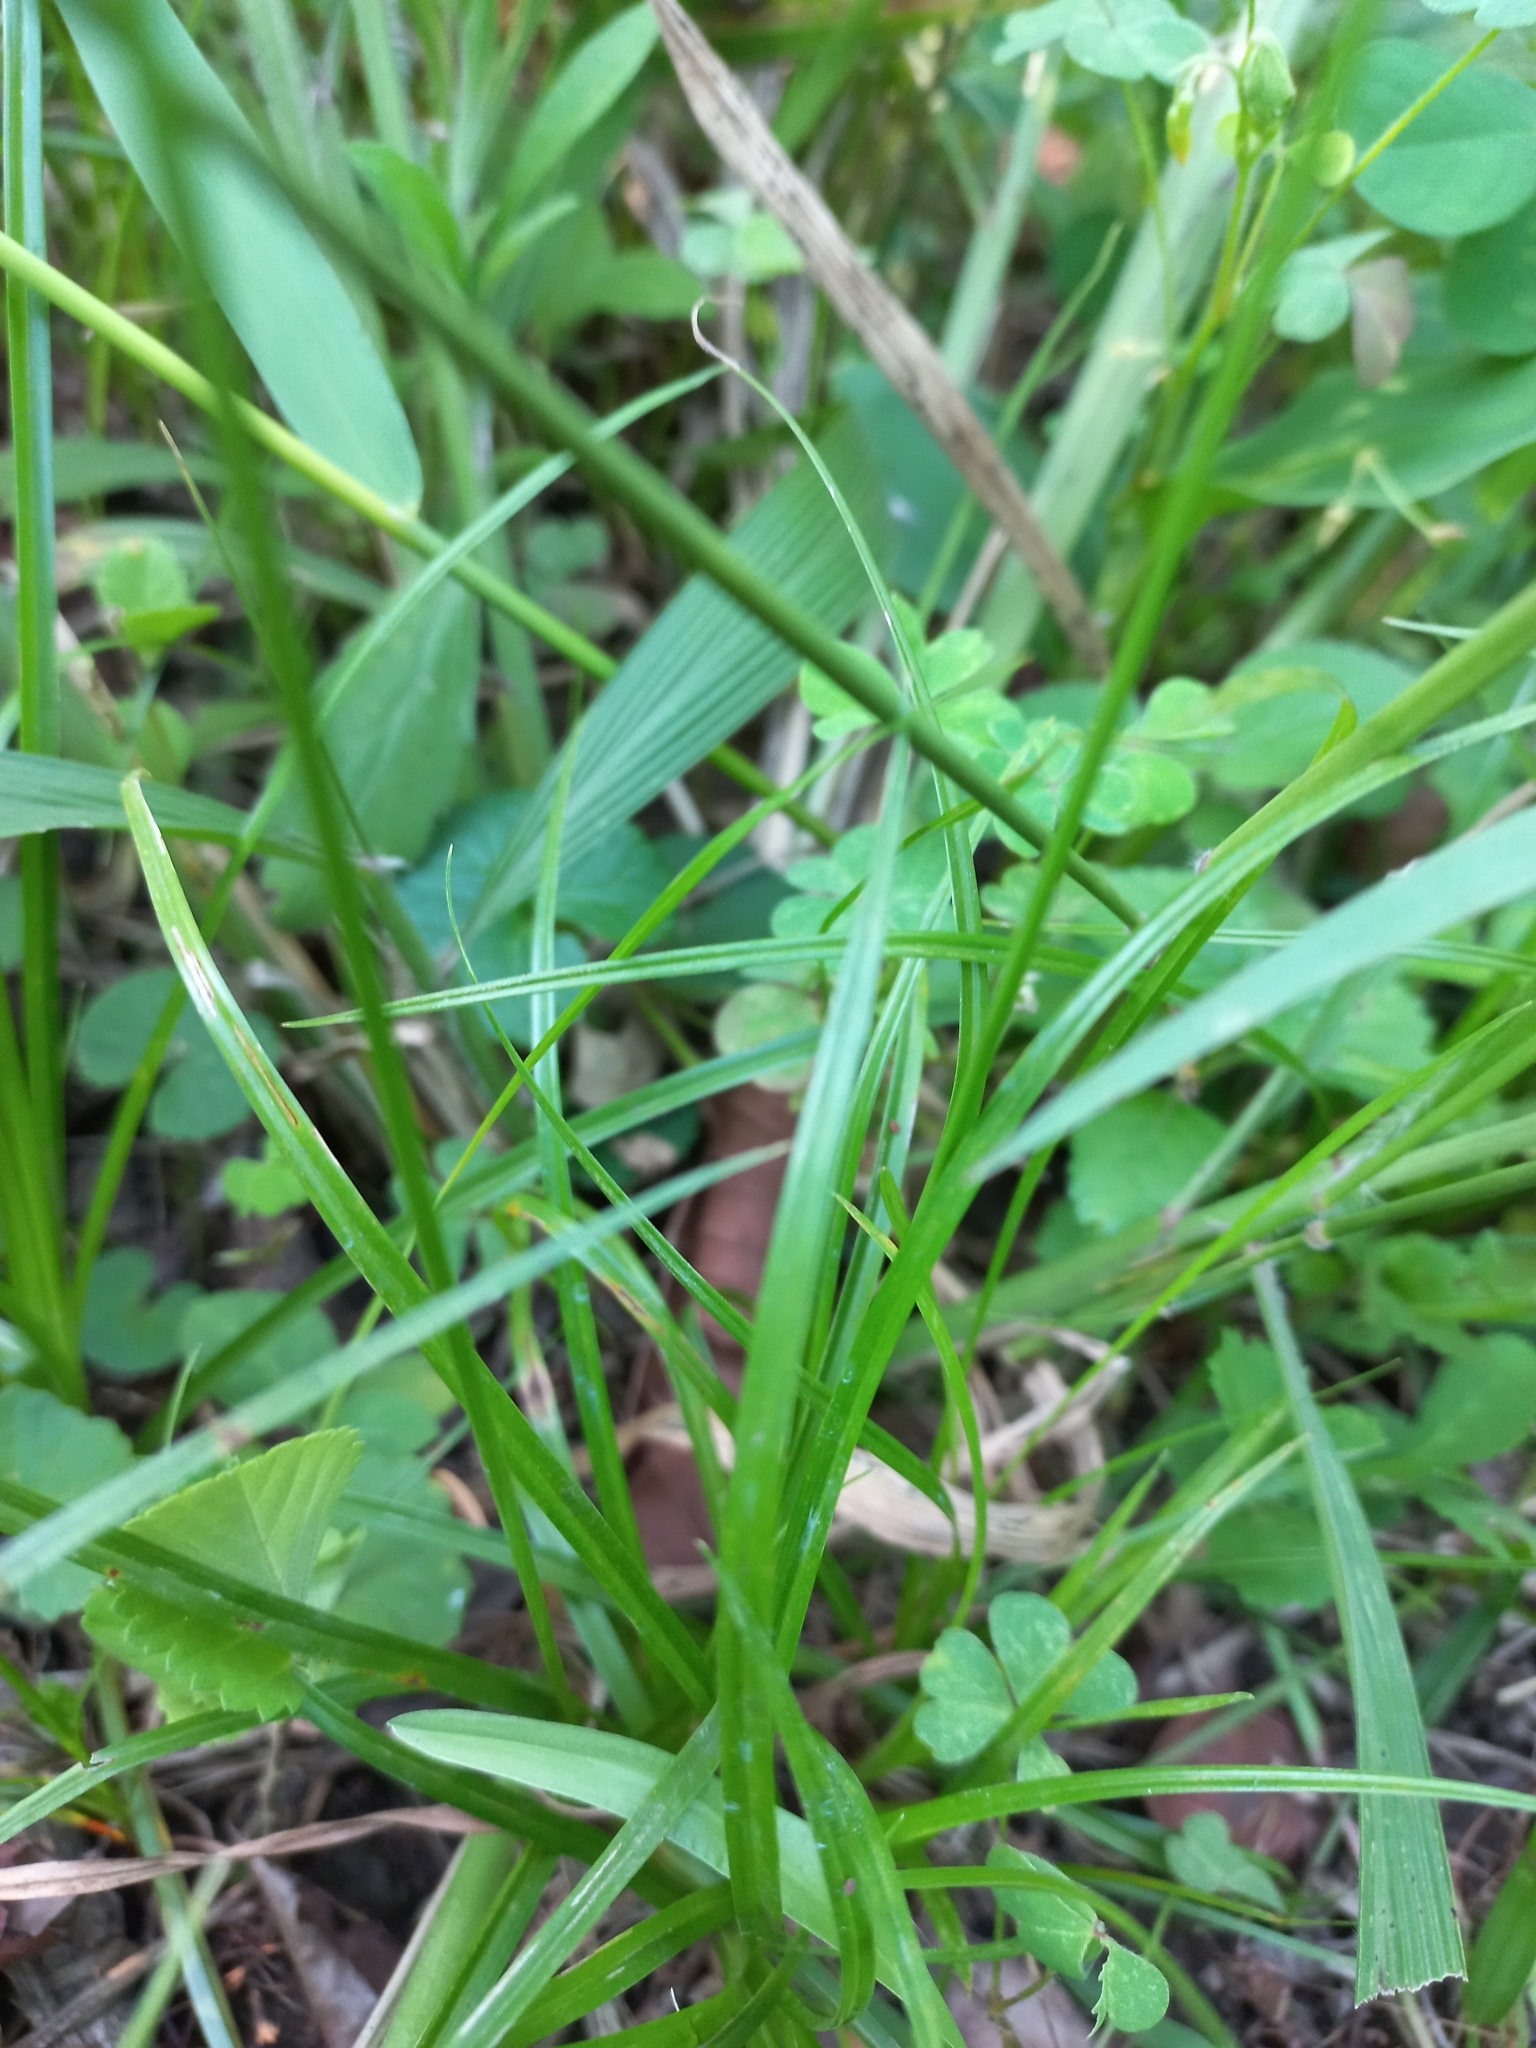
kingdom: Plantae
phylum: Tracheophyta
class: Liliopsida
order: Poales
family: Cyperaceae
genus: Cyperus
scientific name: Cyperus cyperoides
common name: Pacific island flat sedge
